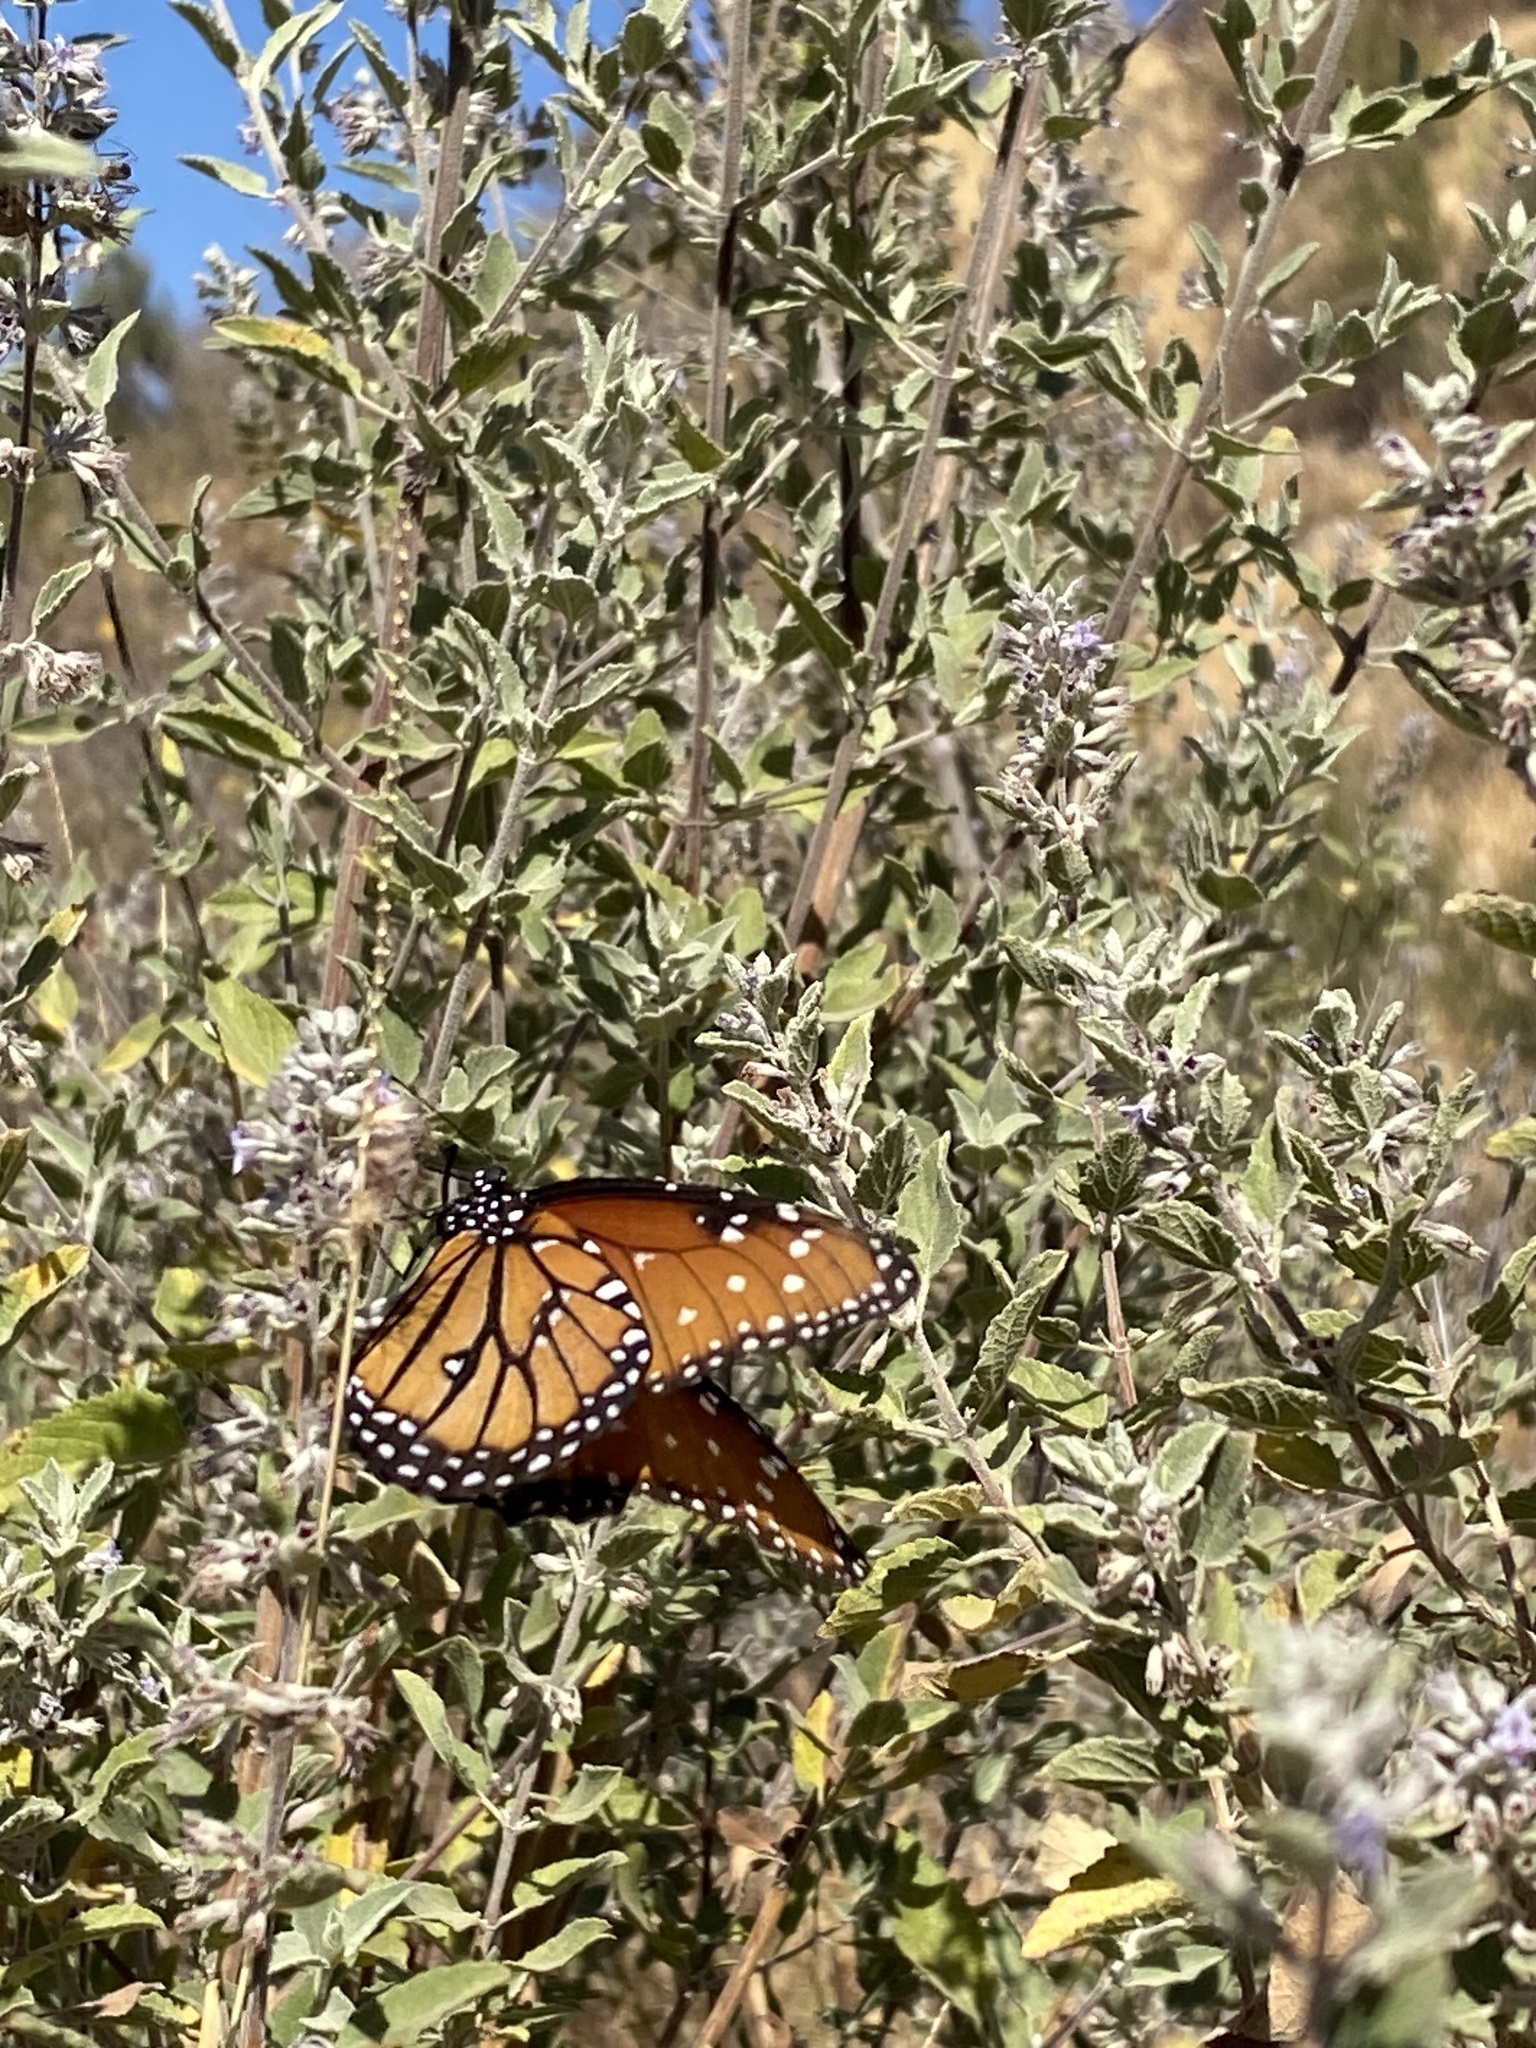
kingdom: Animalia
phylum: Arthropoda
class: Insecta
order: Lepidoptera
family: Nymphalidae
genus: Danaus
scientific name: Danaus gilippus
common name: Queen
